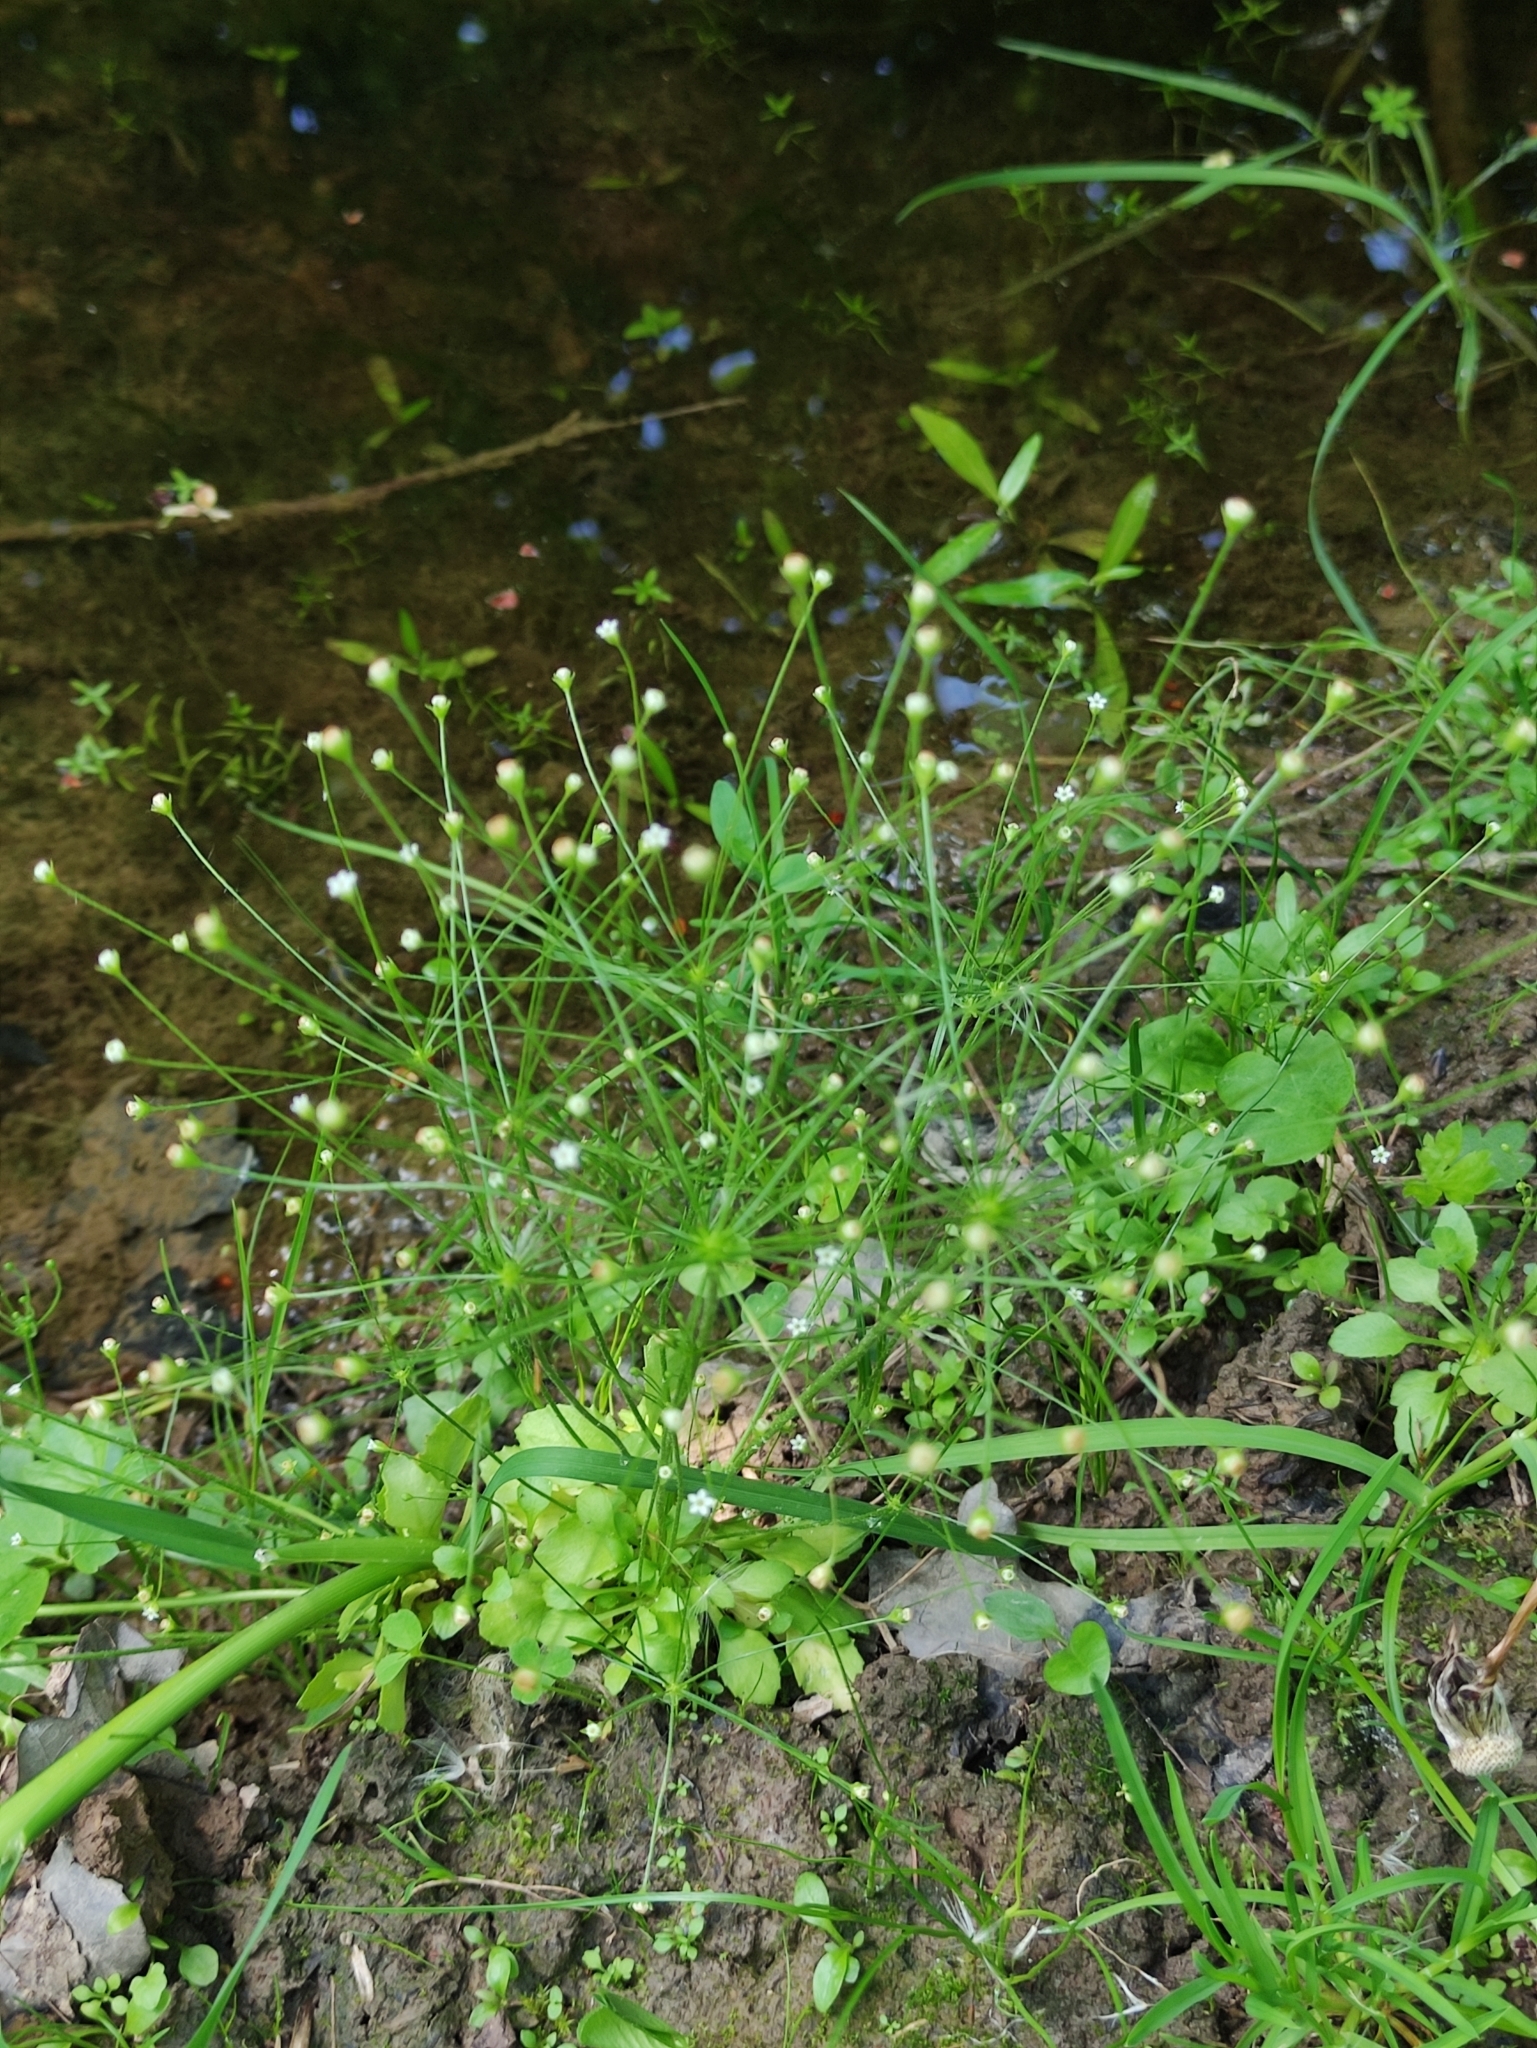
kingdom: Plantae
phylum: Tracheophyta
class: Magnoliopsida
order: Ericales
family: Primulaceae
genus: Androsace
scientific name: Androsace filiformis
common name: Filiform rock jasmine
